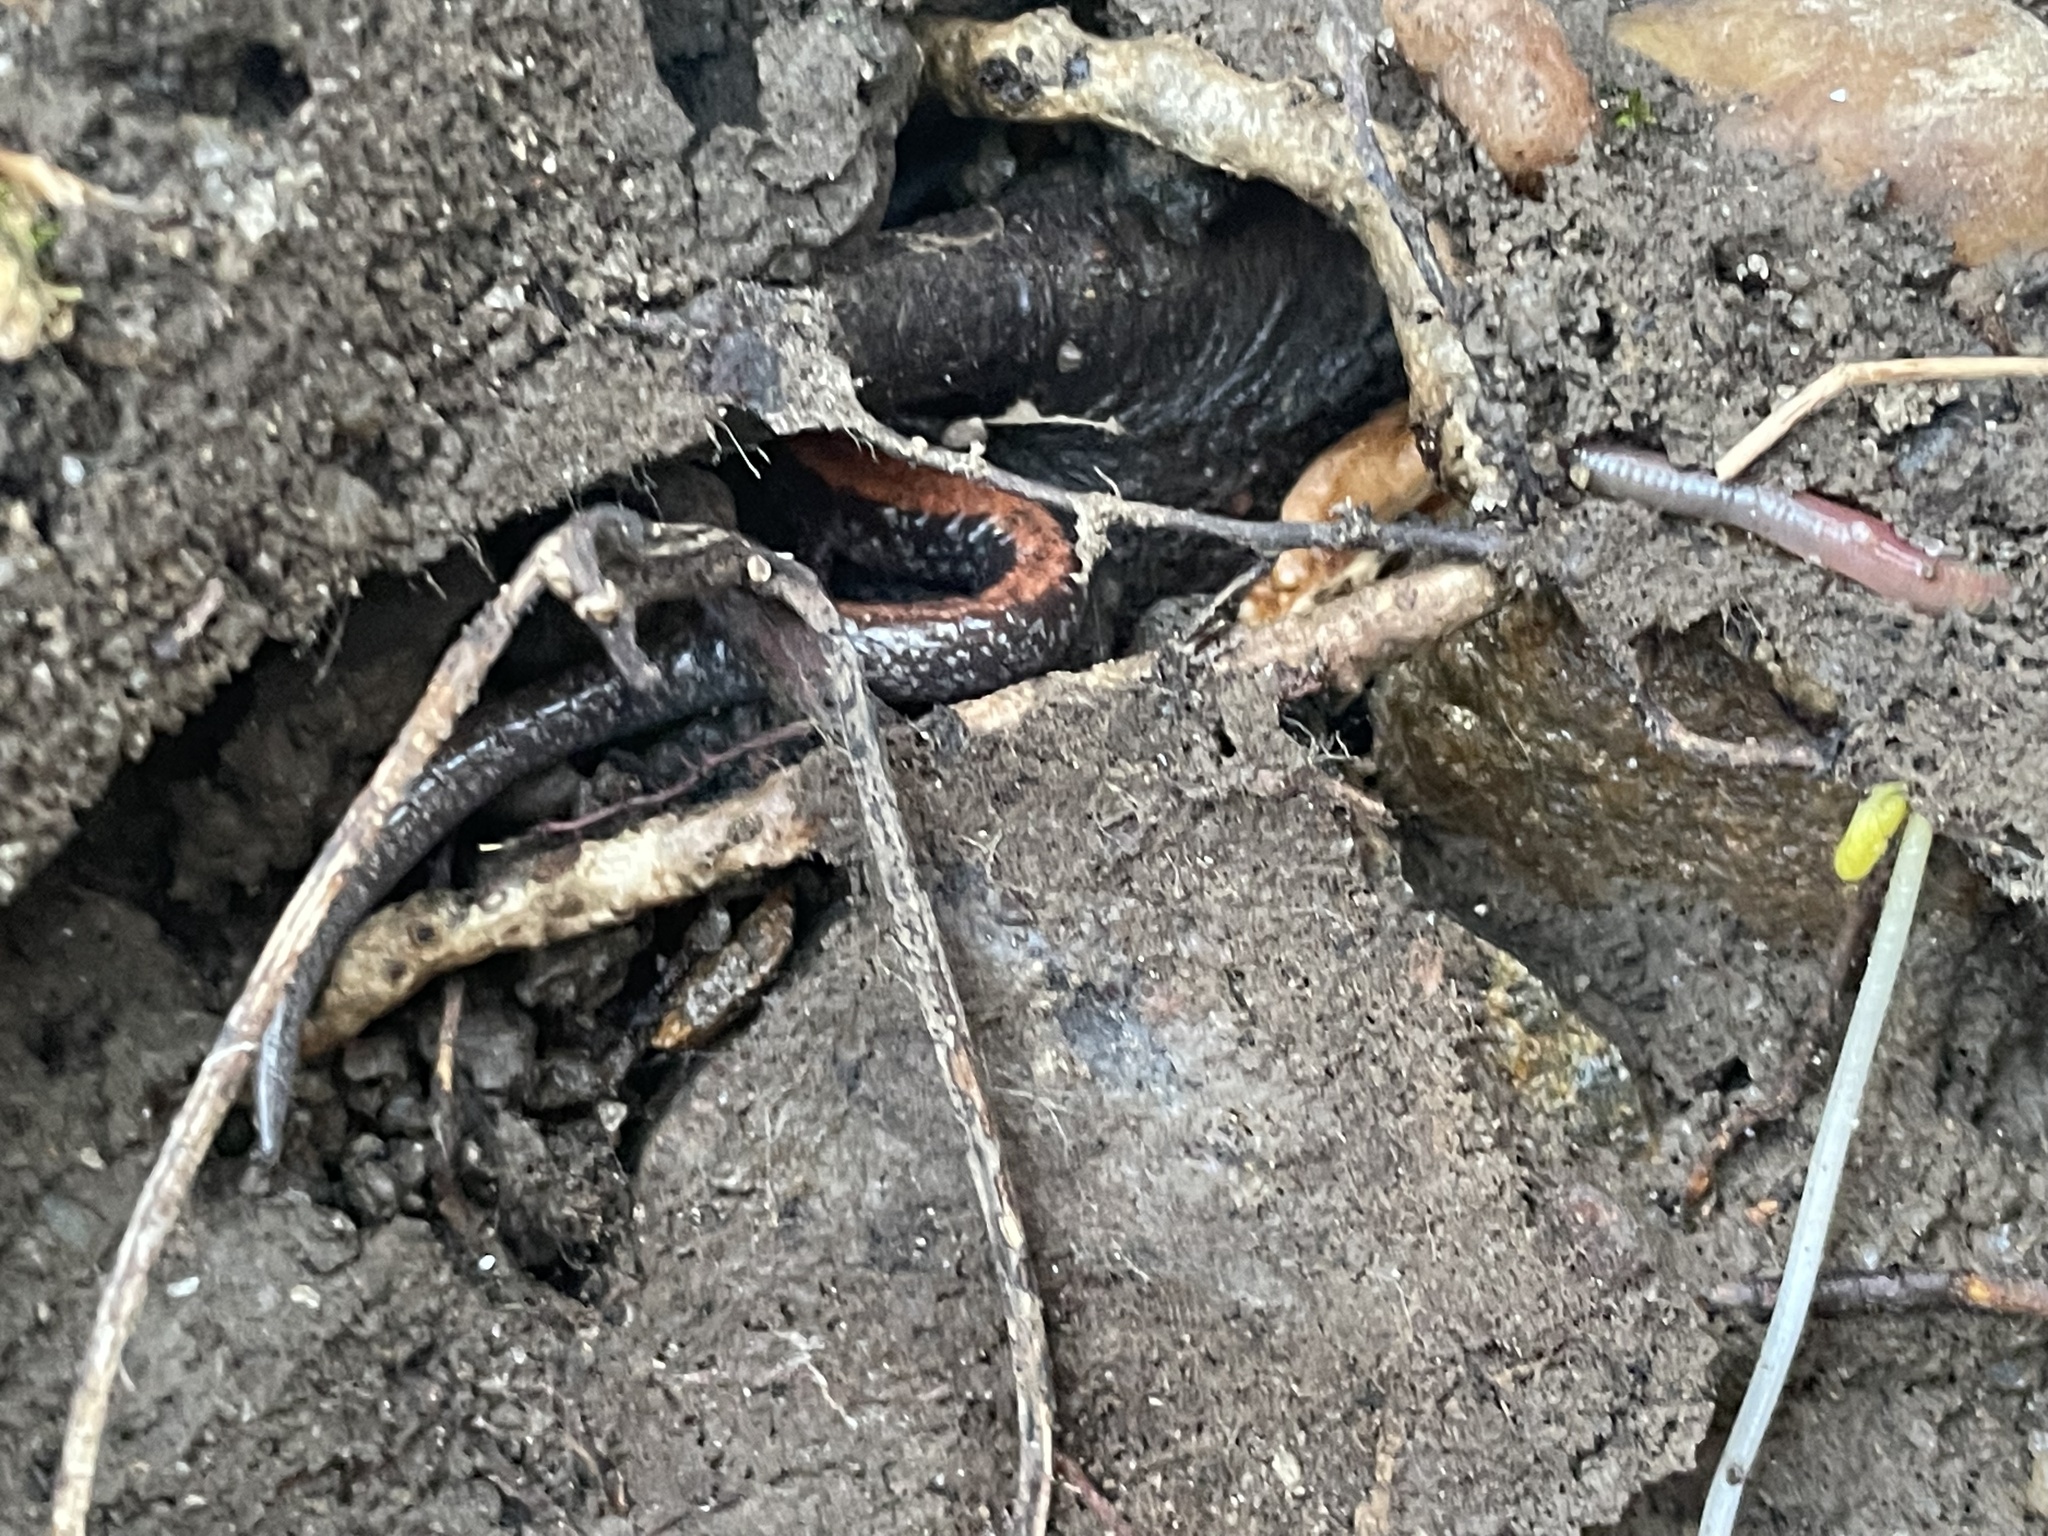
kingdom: Animalia
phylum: Chordata
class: Amphibia
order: Caudata
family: Plethodontidae
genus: Plethodon
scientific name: Plethodon cinereus
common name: Redback salamander
